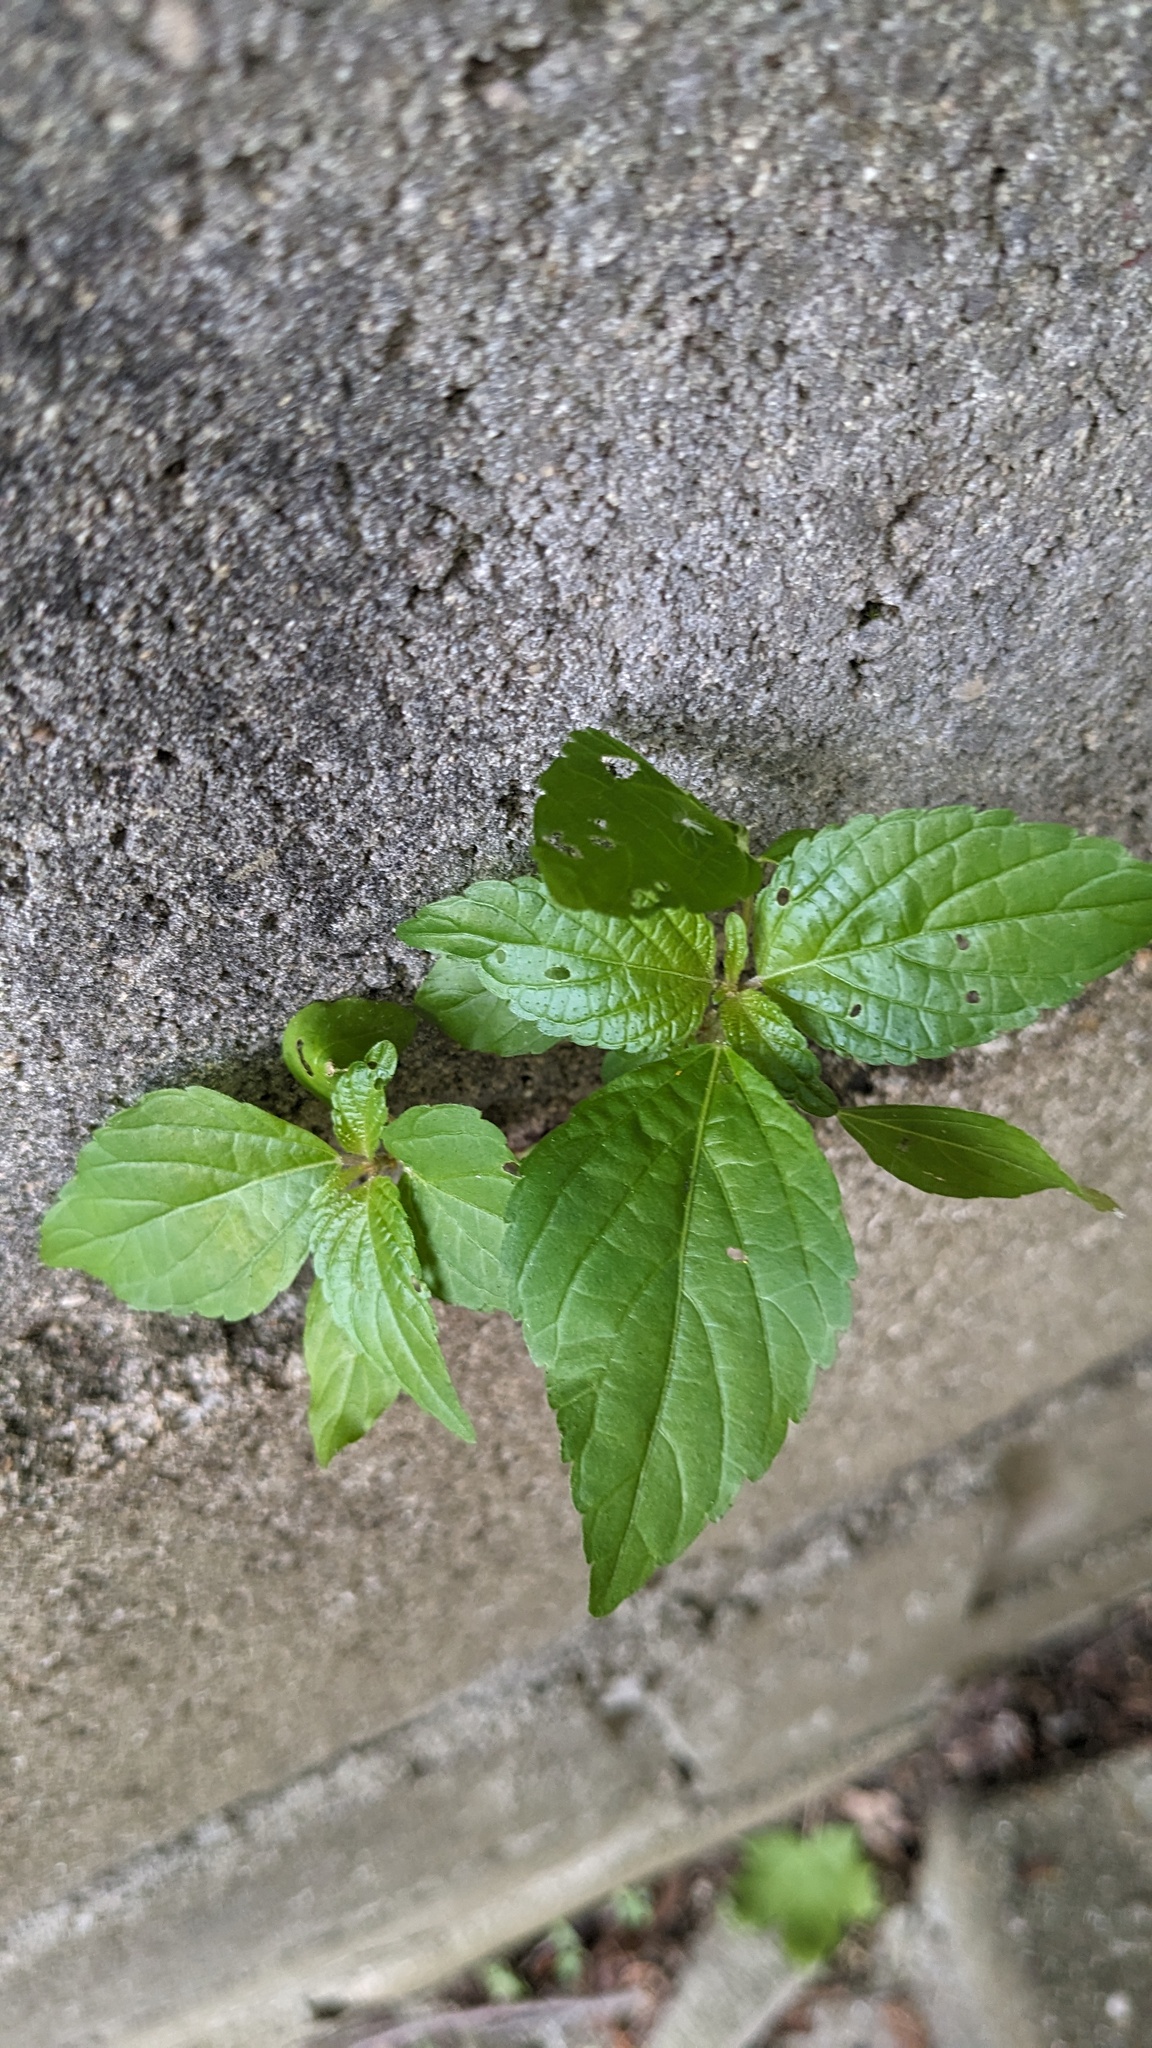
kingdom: Plantae
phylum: Tracheophyta
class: Magnoliopsida
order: Malpighiales
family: Euphorbiaceae
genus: Acalypha
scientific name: Acalypha rhomboidea
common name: Rhombic copperleaf
